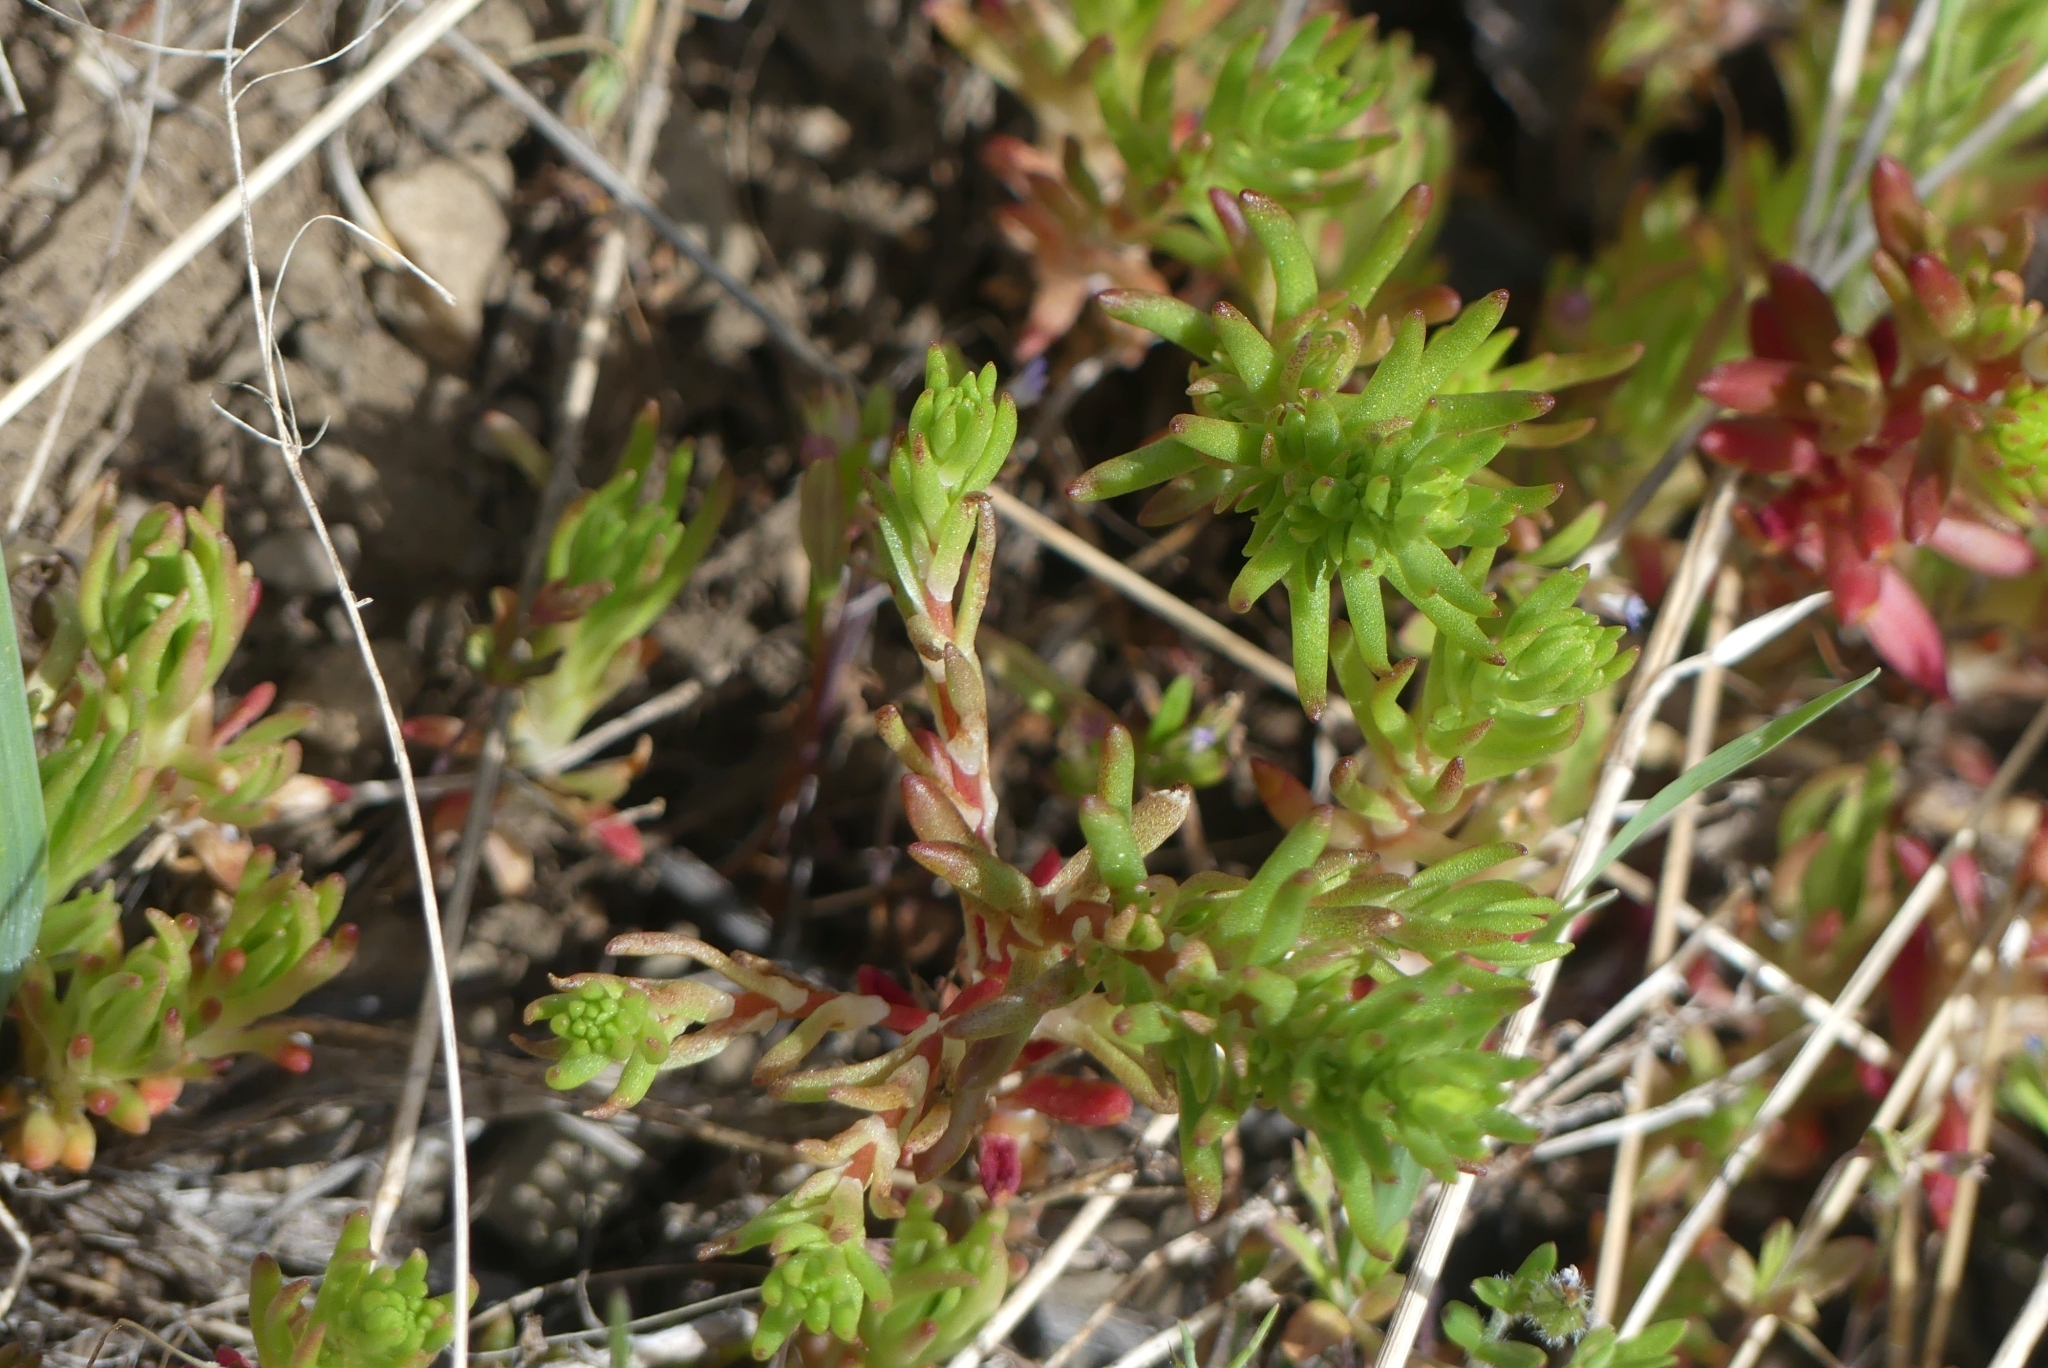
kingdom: Plantae
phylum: Tracheophyta
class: Magnoliopsida
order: Saxifragales
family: Crassulaceae
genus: Sedum
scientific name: Sedum stenopetalum
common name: Narrow-petaled stonecrop
